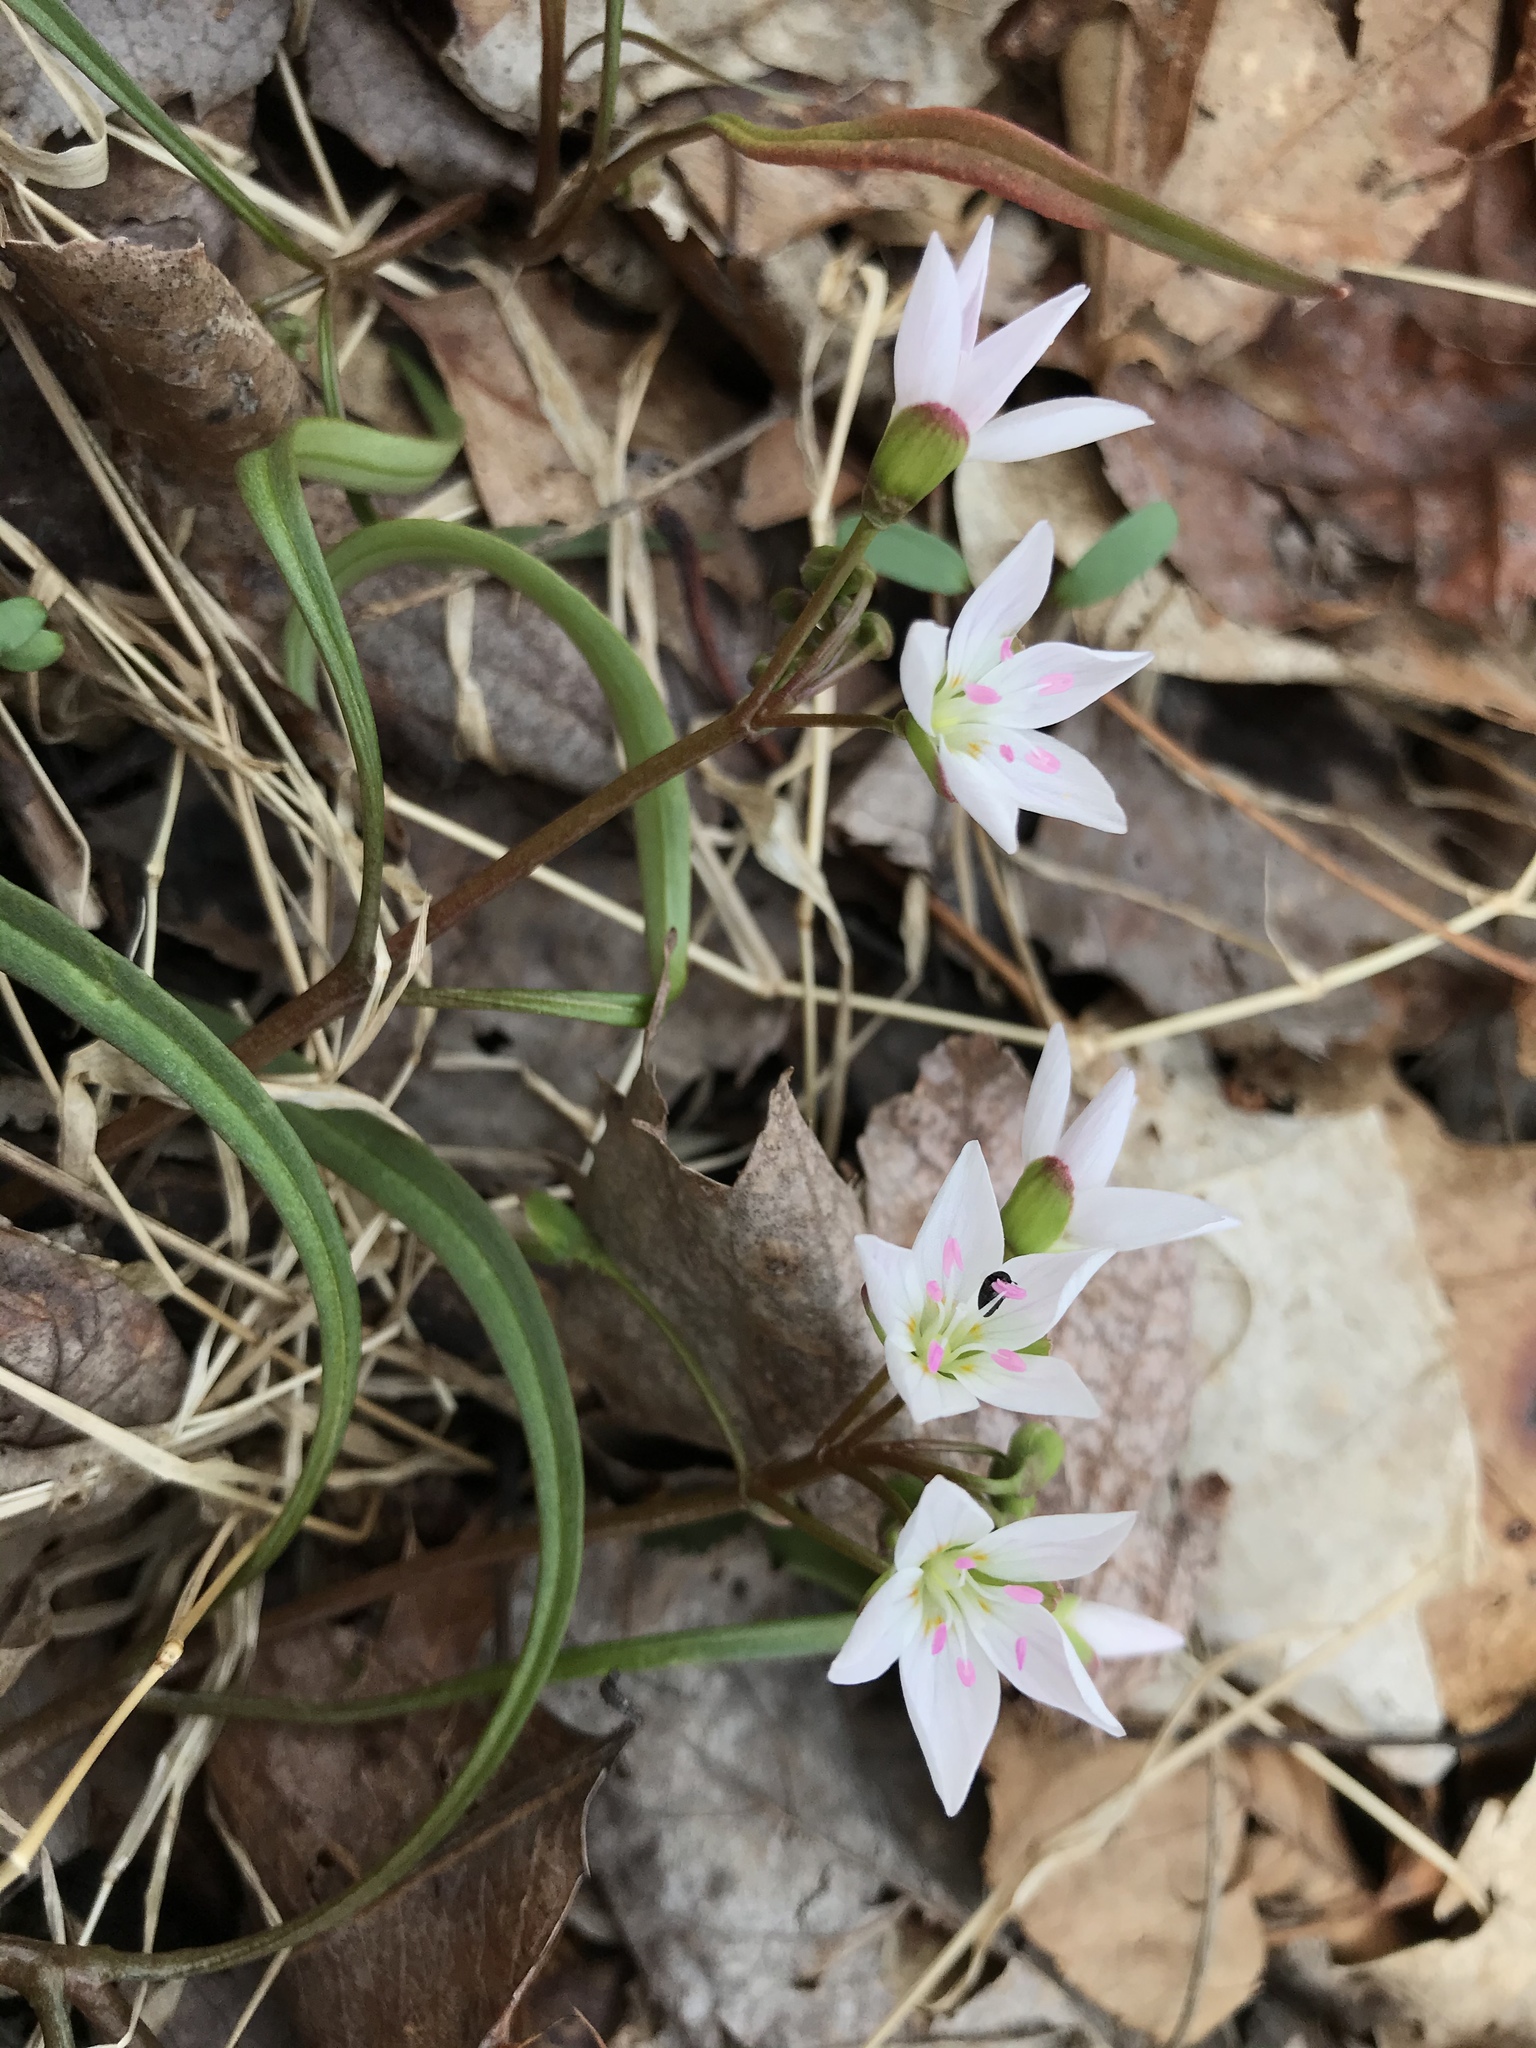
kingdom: Plantae
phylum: Tracheophyta
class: Magnoliopsida
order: Caryophyllales
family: Montiaceae
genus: Claytonia
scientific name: Claytonia virginica
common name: Virginia springbeauty
